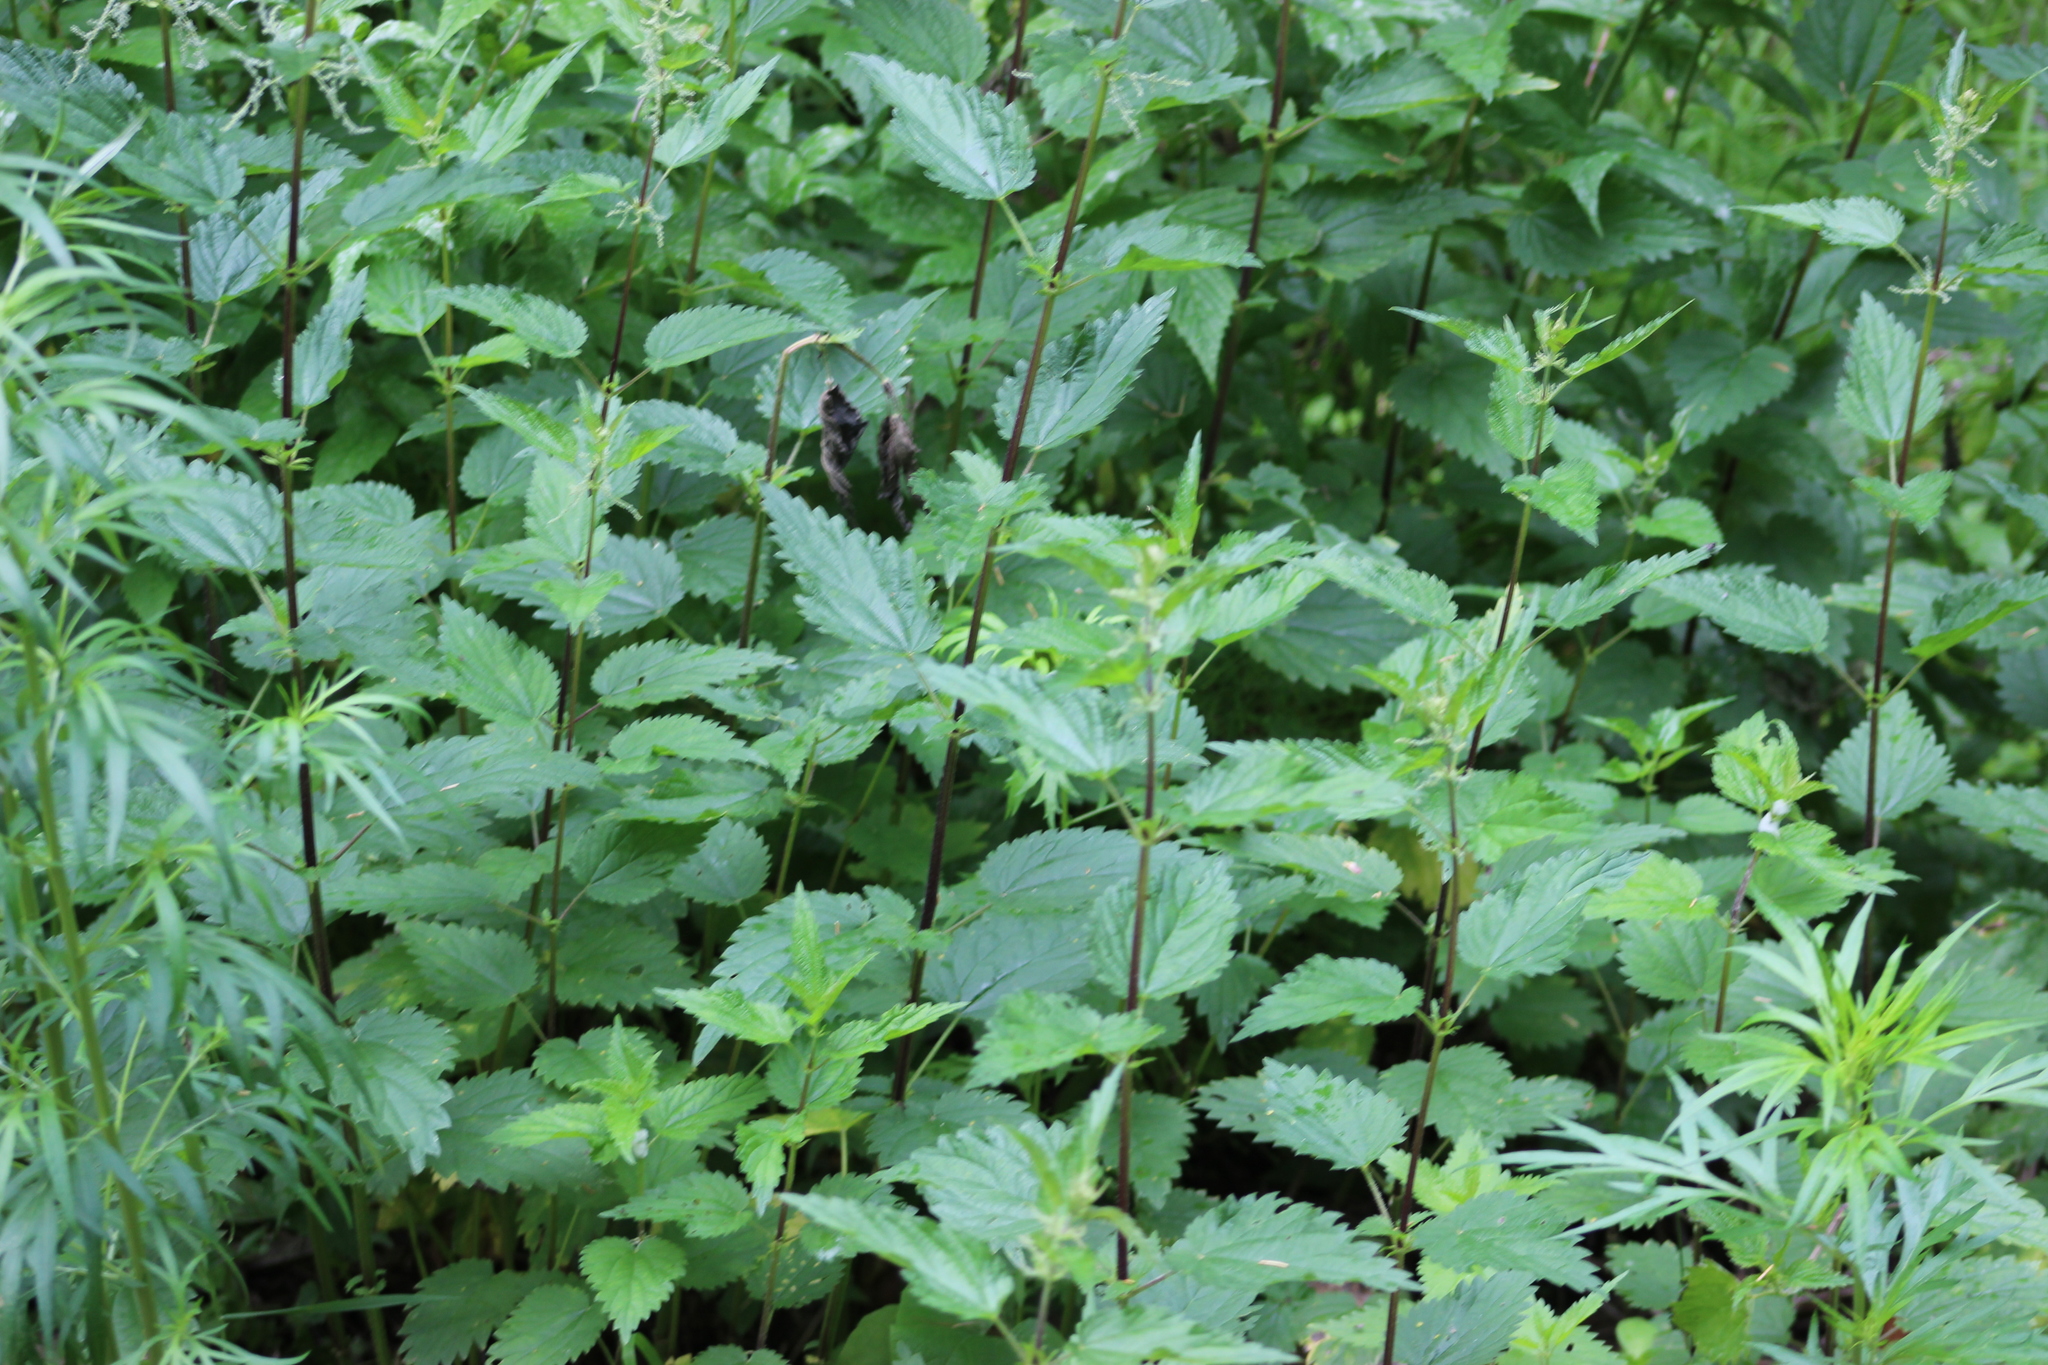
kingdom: Plantae
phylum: Tracheophyta
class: Magnoliopsida
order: Rosales
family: Urticaceae
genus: Urtica
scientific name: Urtica dioica
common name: Common nettle
